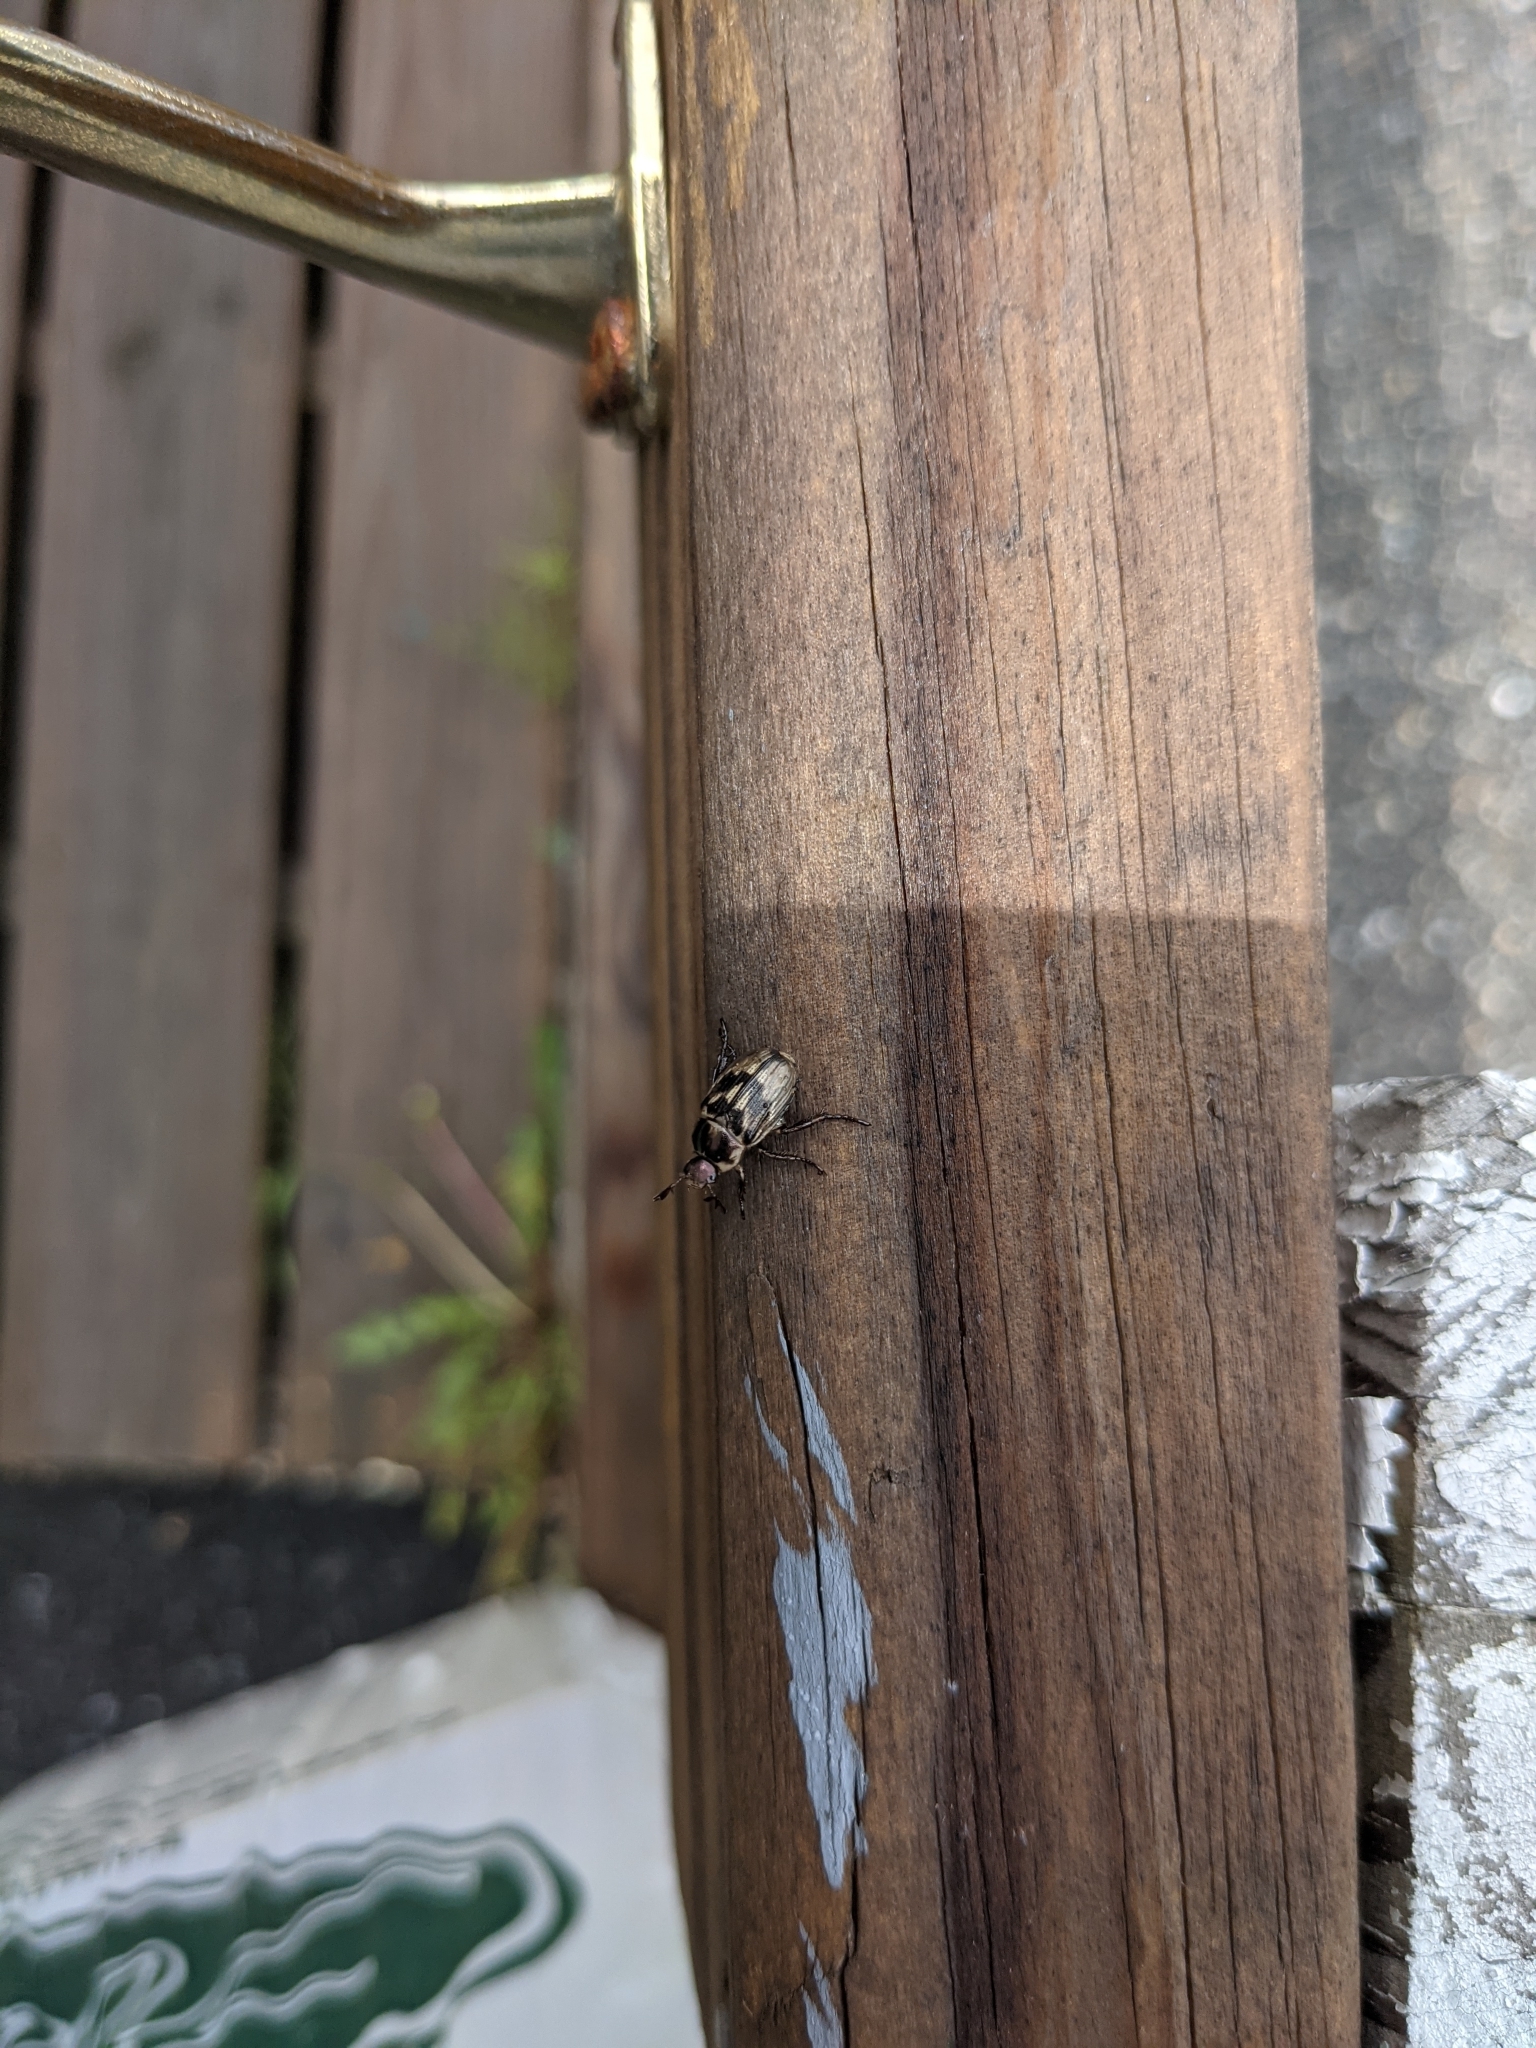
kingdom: Animalia
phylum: Arthropoda
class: Insecta
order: Coleoptera
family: Scarabaeidae
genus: Exomala
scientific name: Exomala orientalis
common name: Oriental beetle
